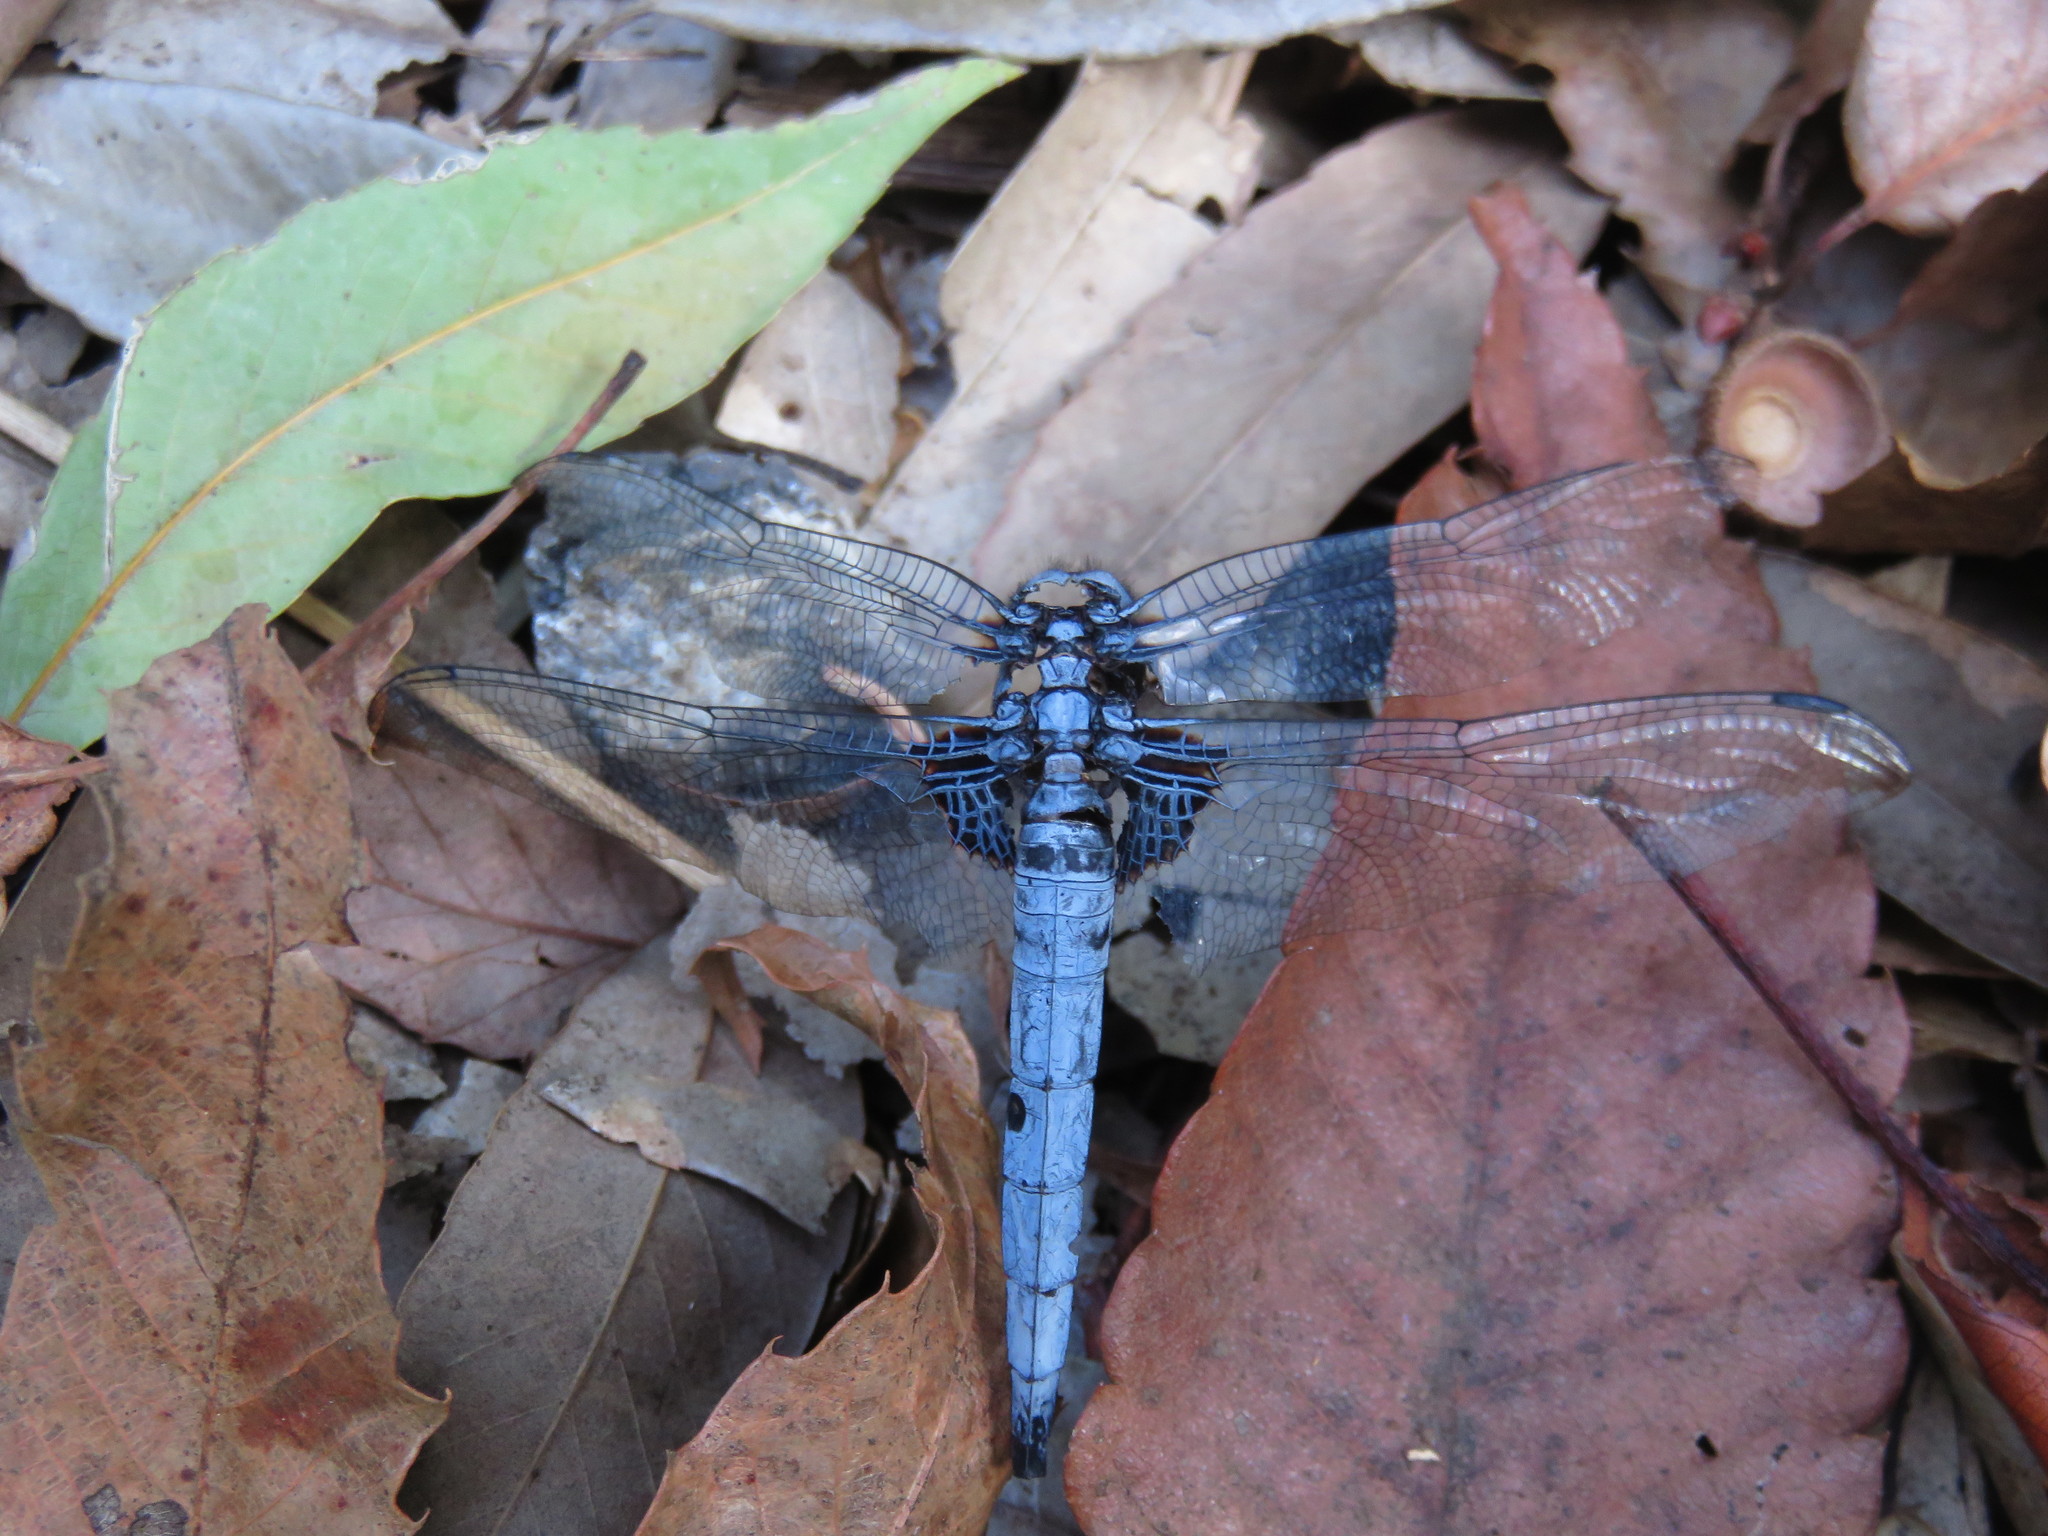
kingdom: Animalia
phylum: Arthropoda
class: Insecta
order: Odonata
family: Libellulidae
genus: Orthetrum
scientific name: Orthetrum melania
